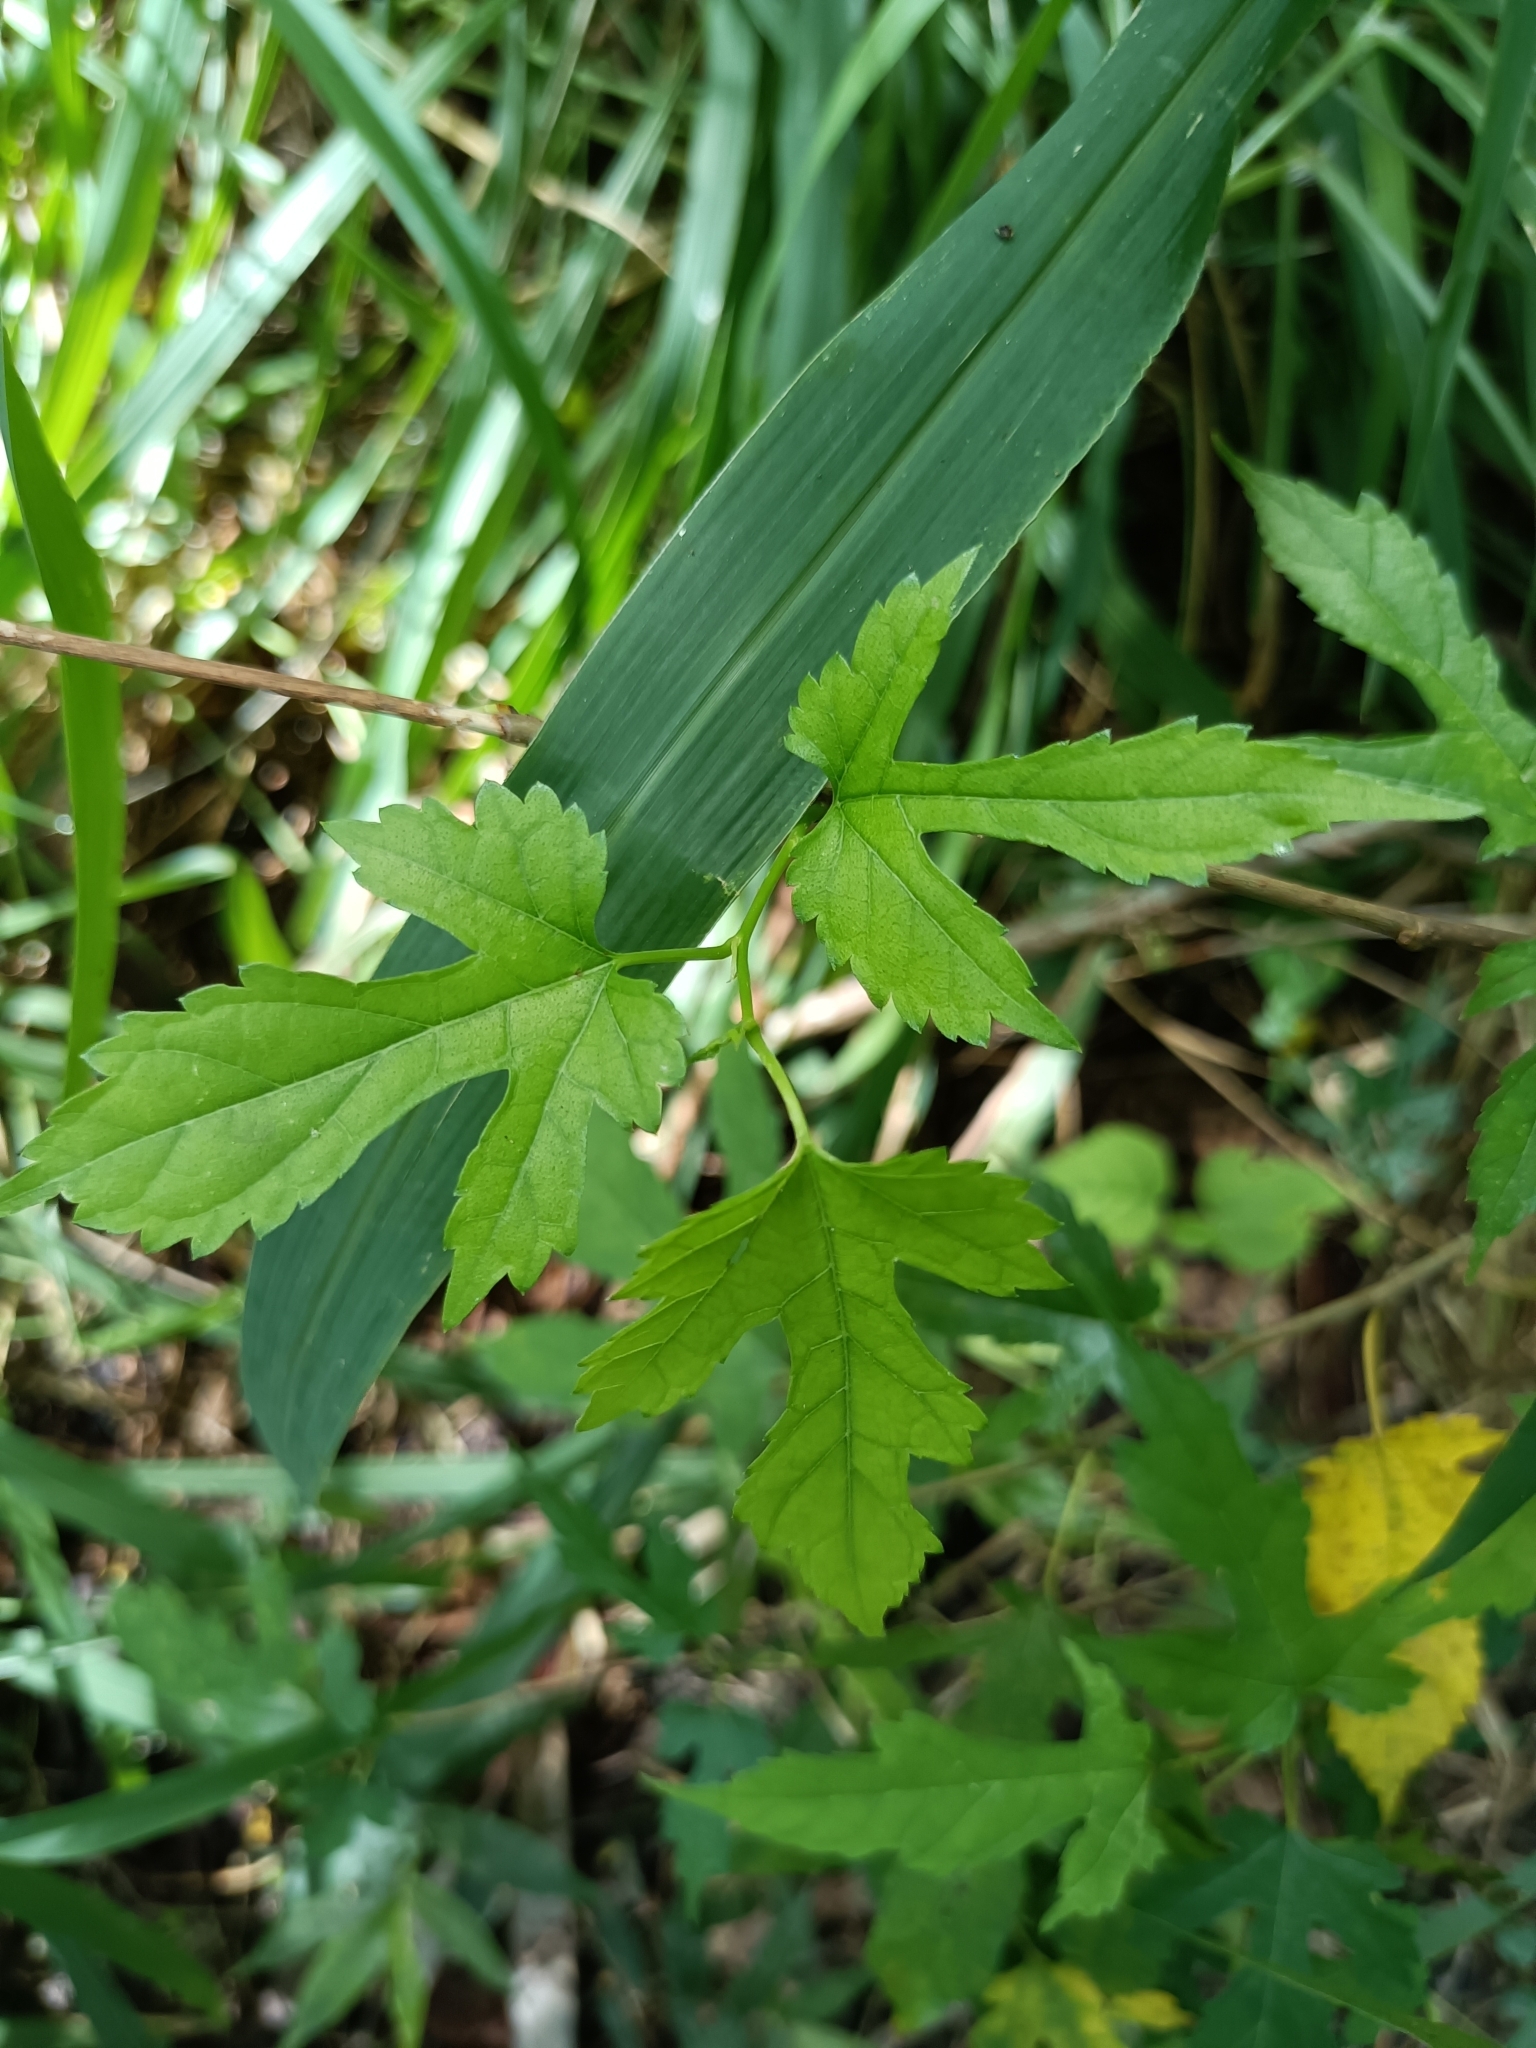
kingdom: Plantae
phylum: Tracheophyta
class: Magnoliopsida
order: Rosales
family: Moraceae
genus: Morus
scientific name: Morus indica
